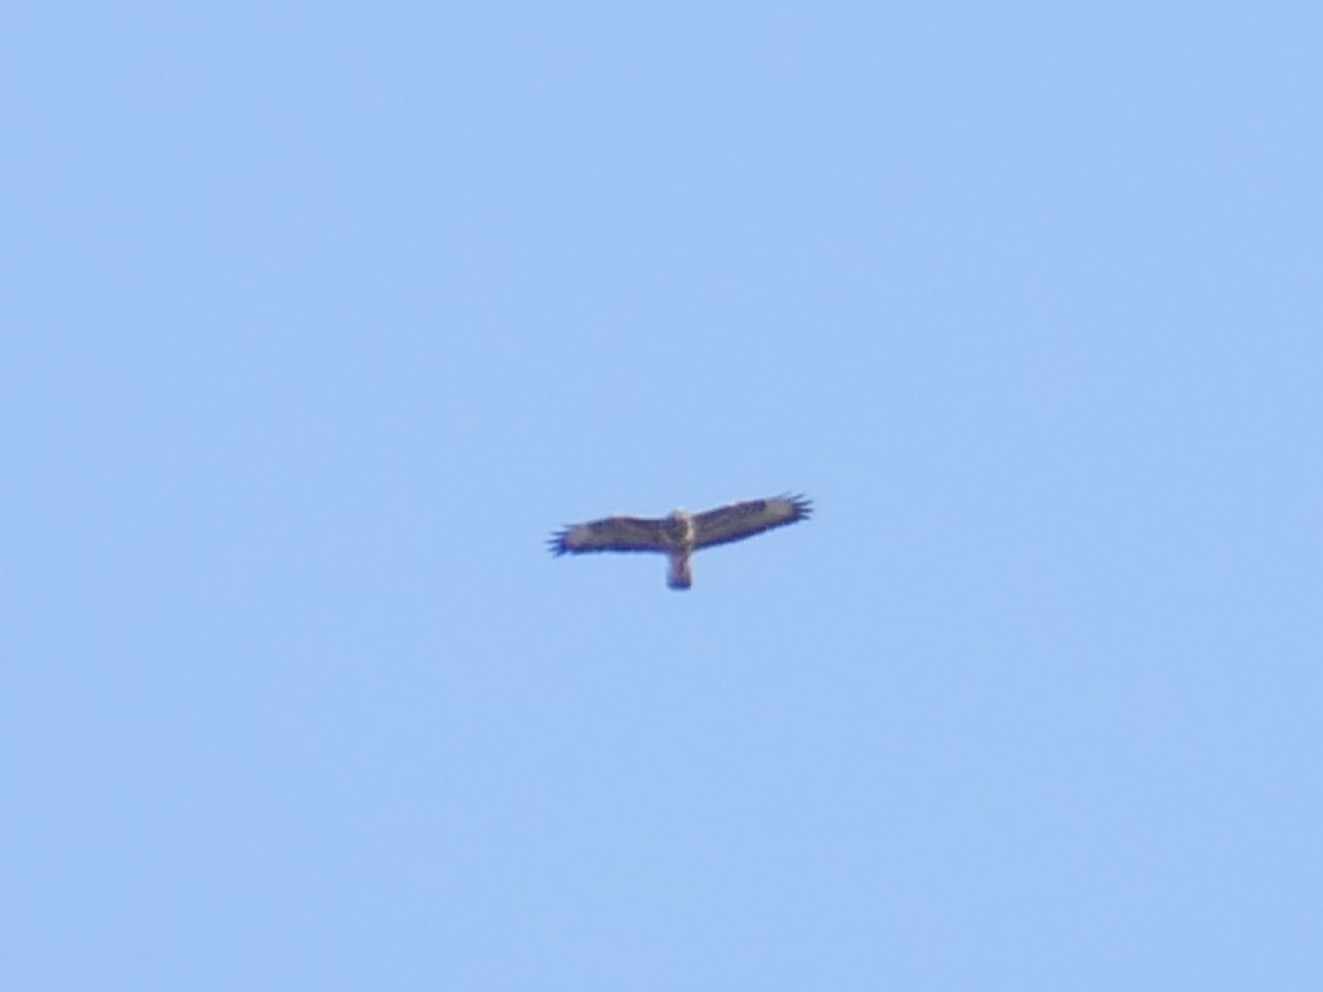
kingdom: Animalia
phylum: Chordata
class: Aves
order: Accipitriformes
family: Accipitridae
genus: Buteo
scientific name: Buteo buteo
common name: Common buzzard
